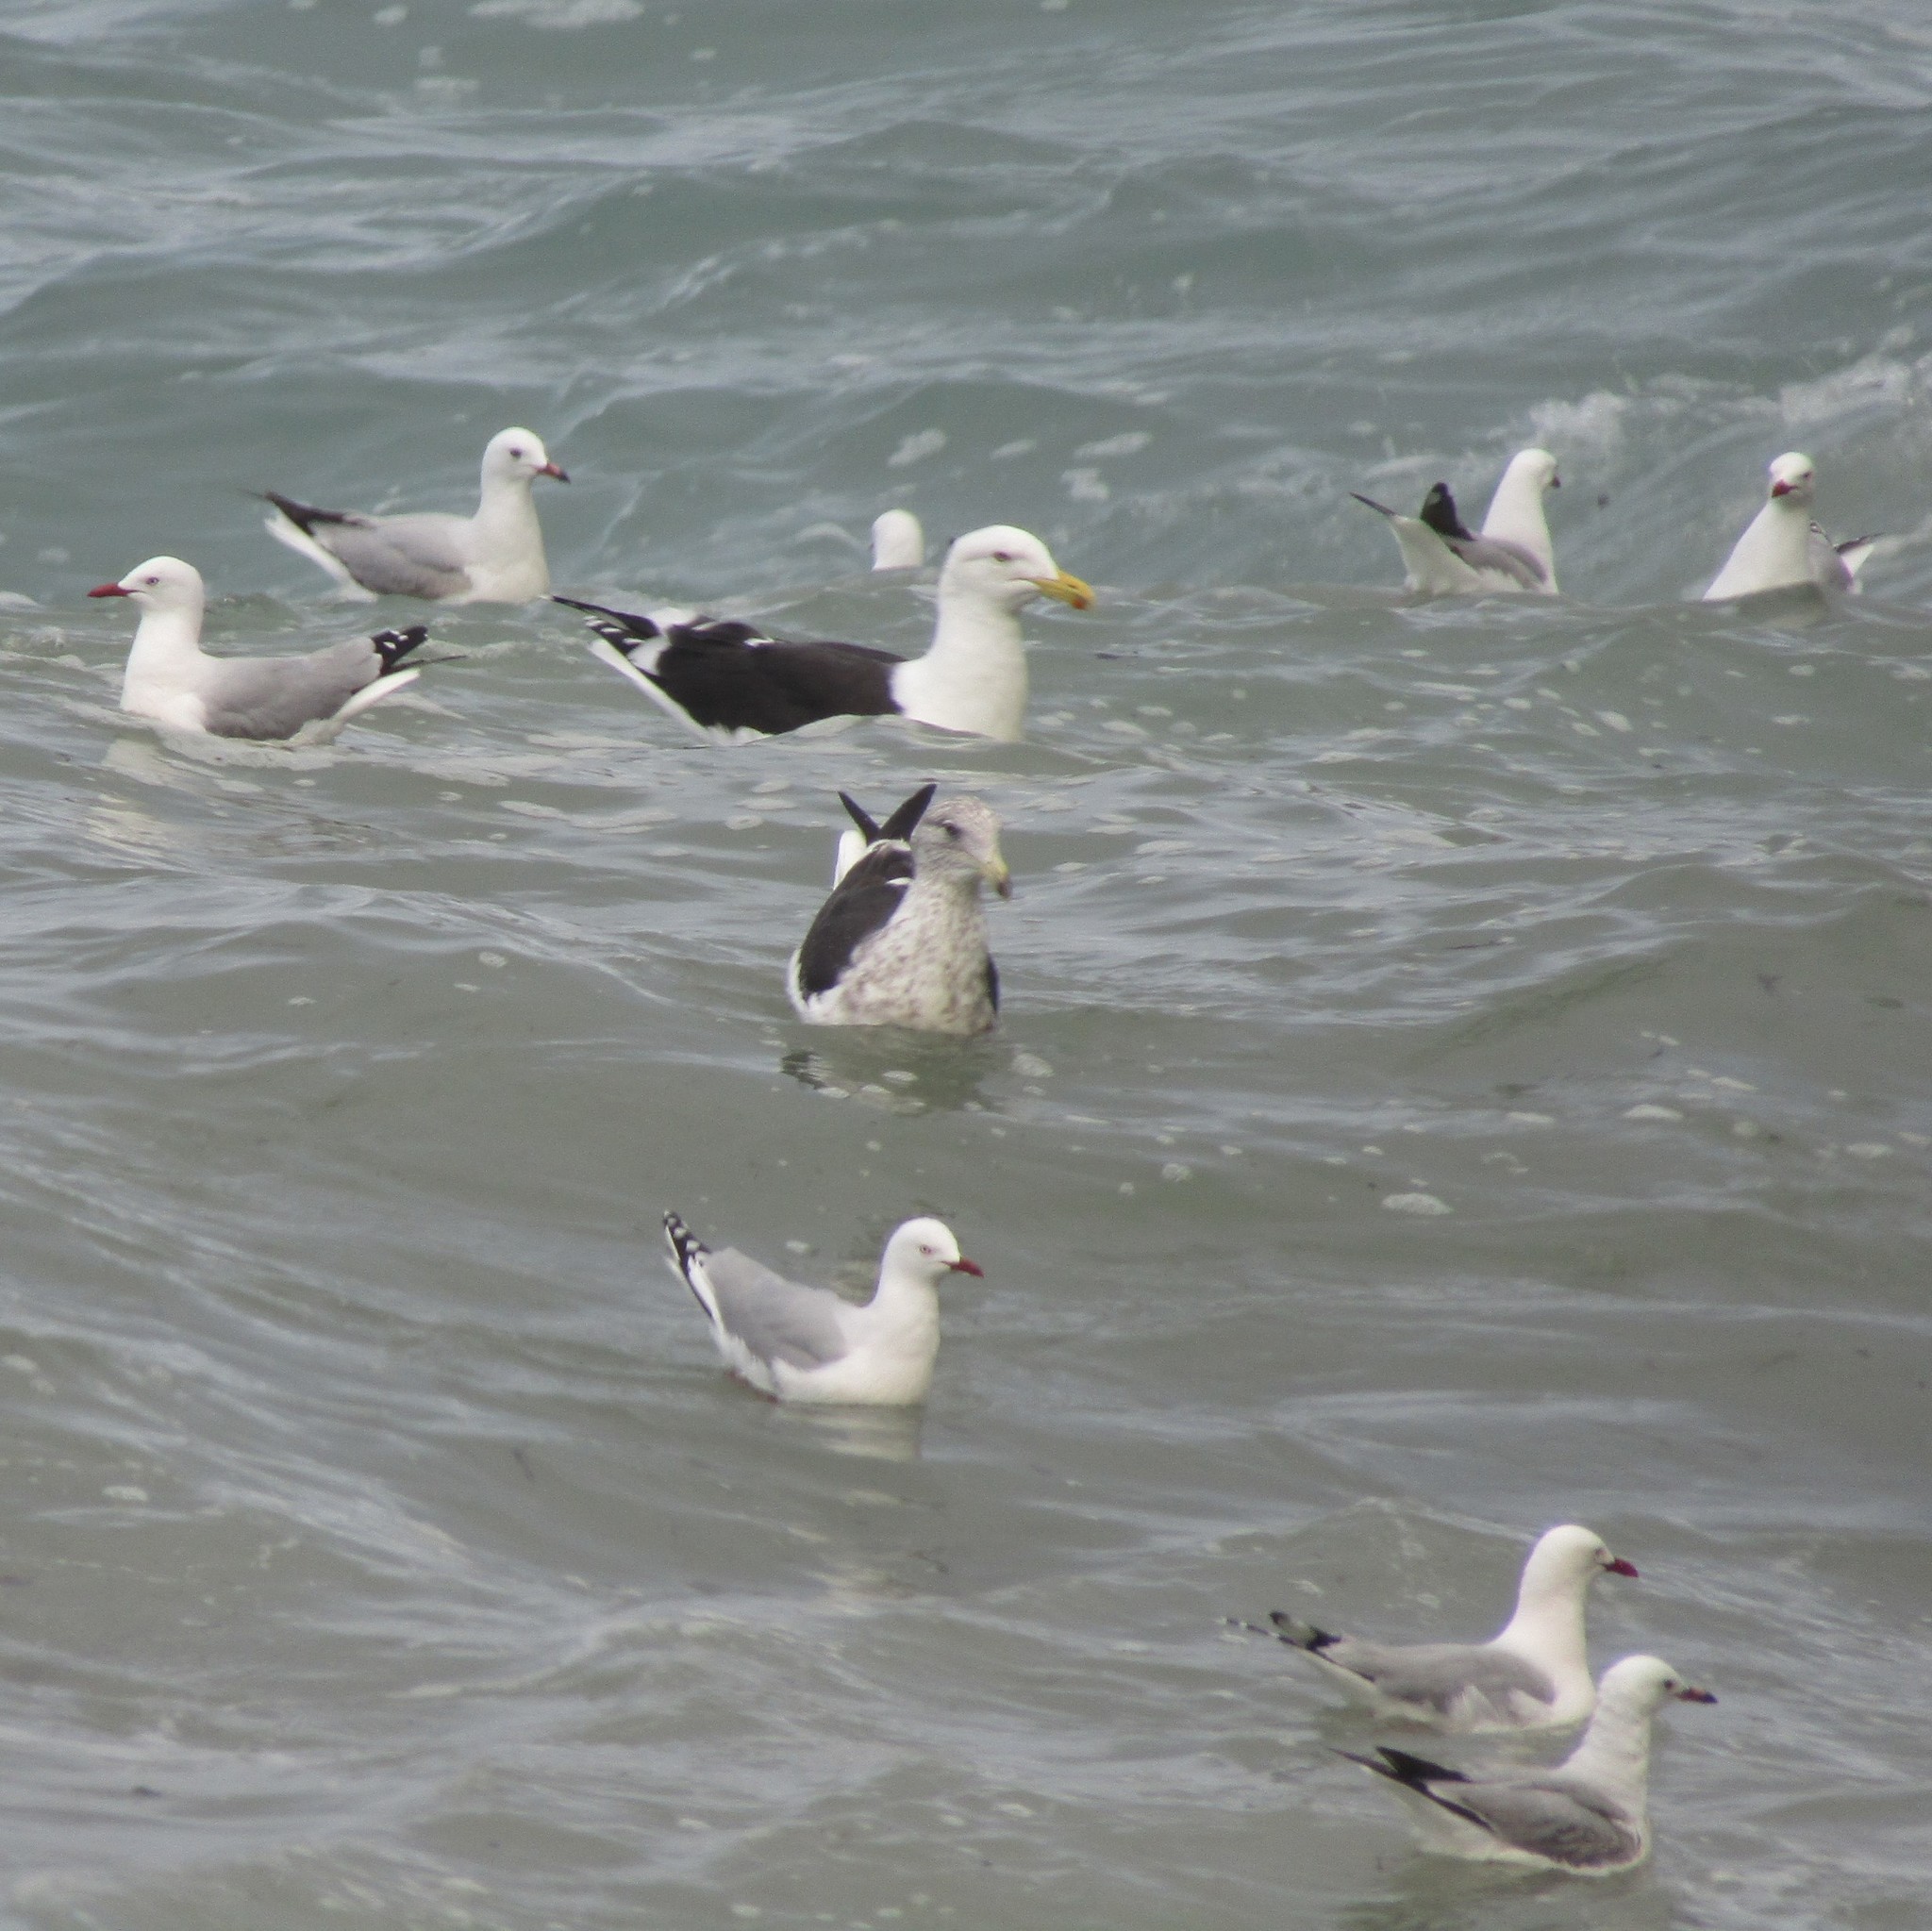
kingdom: Animalia
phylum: Chordata
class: Aves
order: Charadriiformes
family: Laridae
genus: Larus
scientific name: Larus dominicanus
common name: Kelp gull
